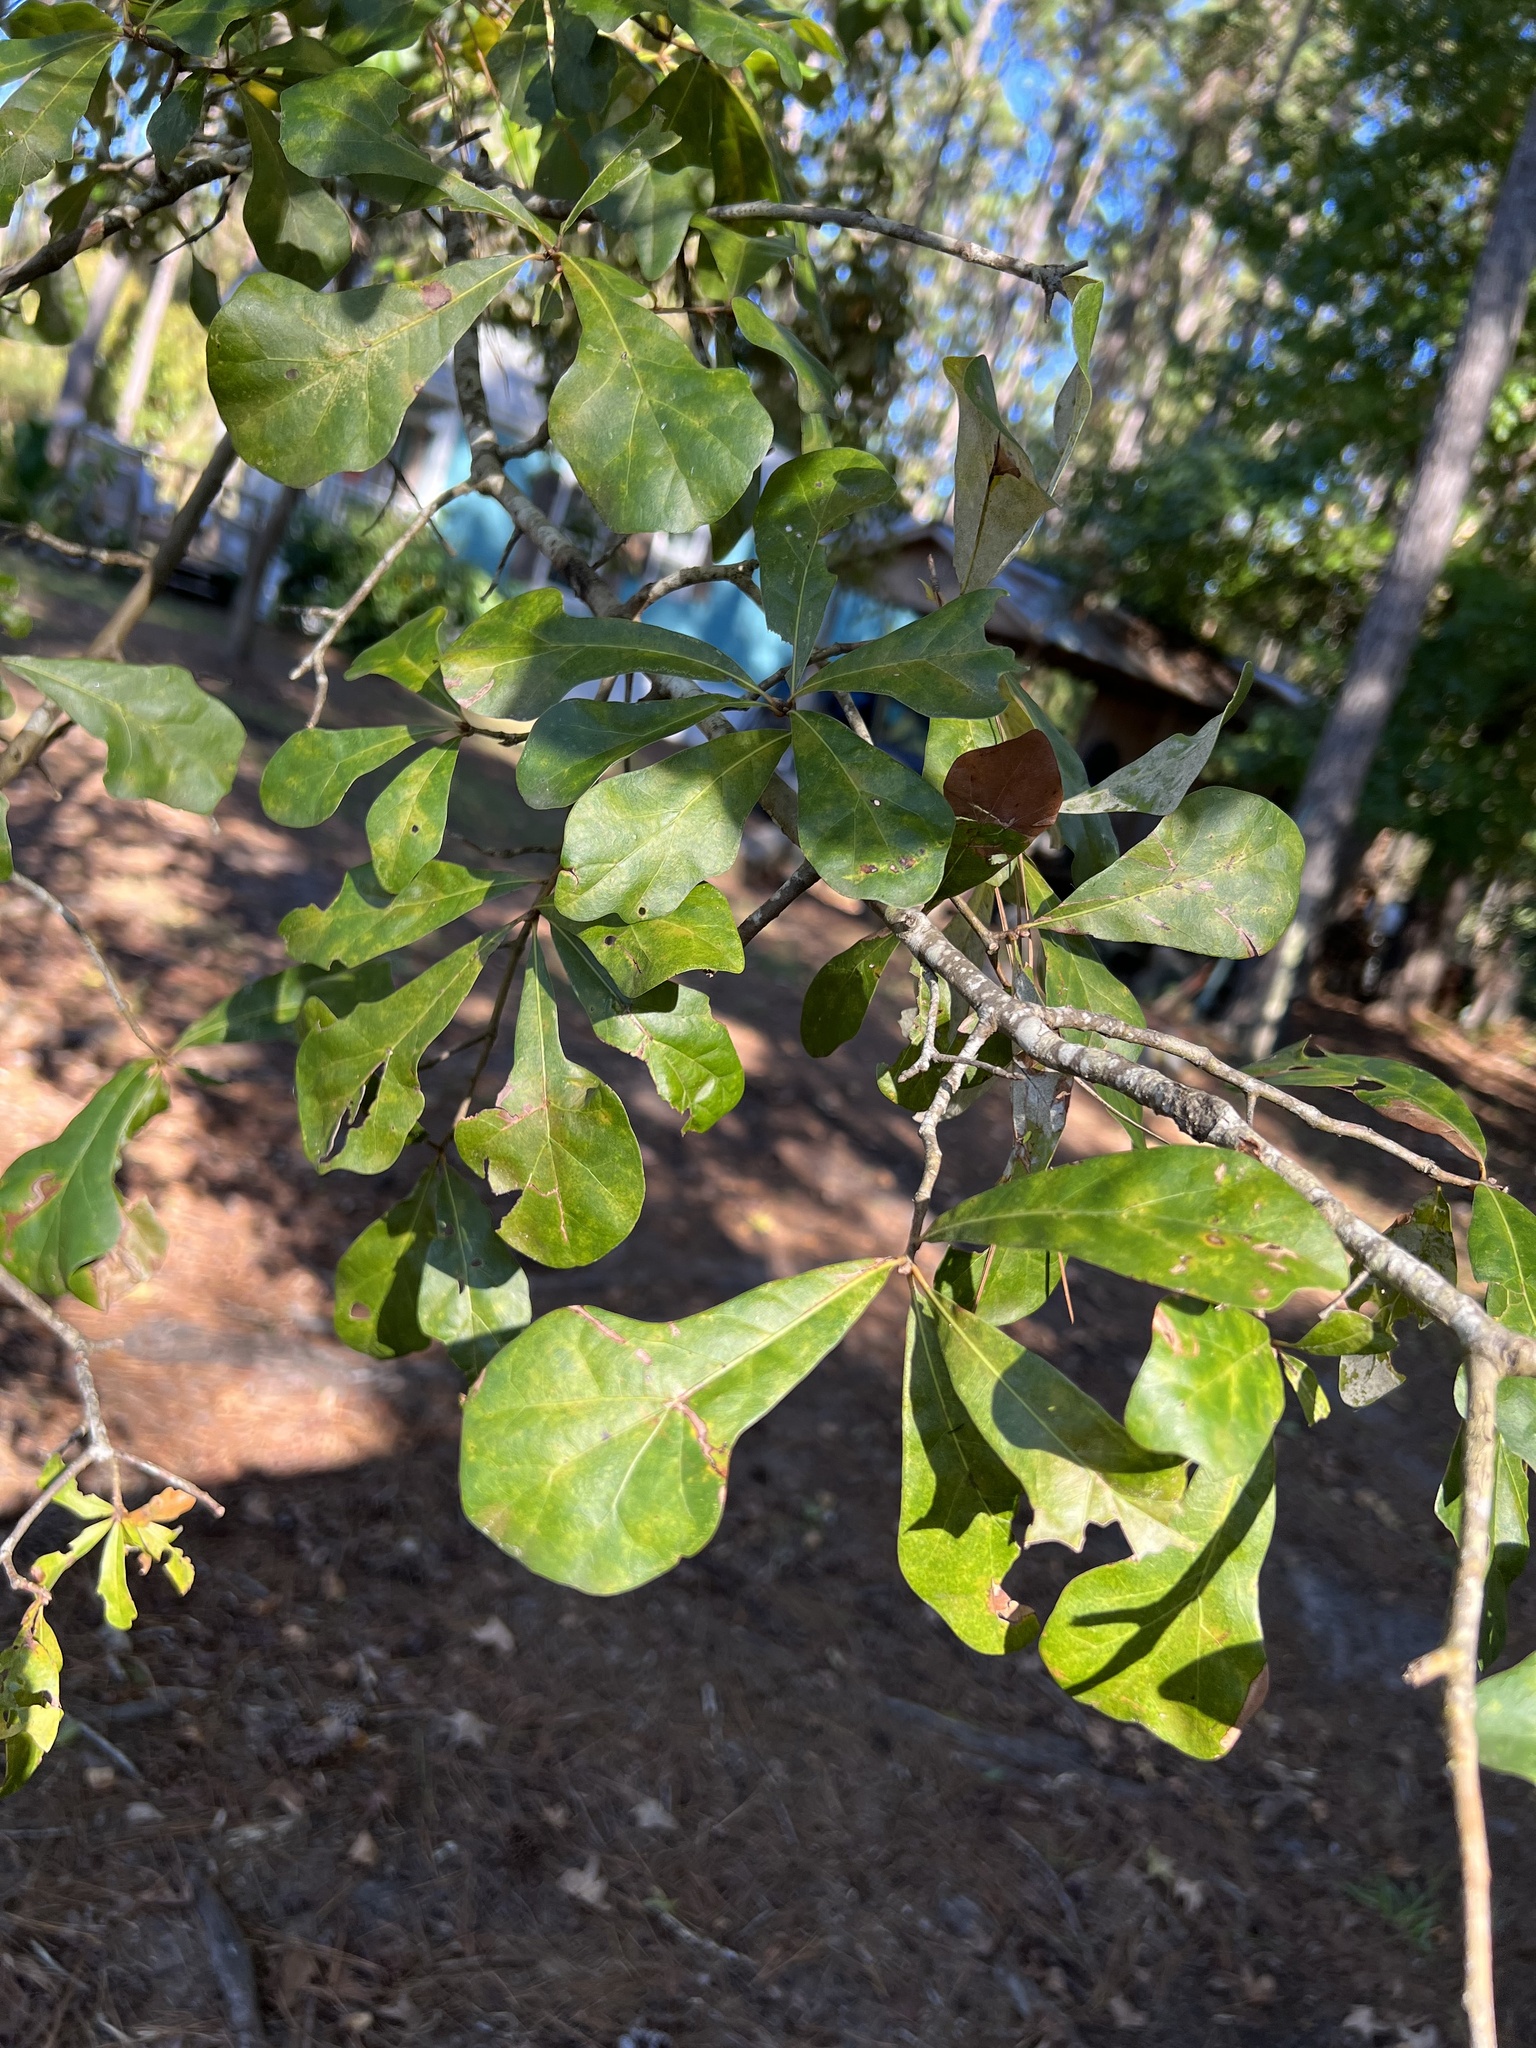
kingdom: Plantae
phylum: Tracheophyta
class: Magnoliopsida
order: Fagales
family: Fagaceae
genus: Quercus
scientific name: Quercus nigra
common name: Water oak
